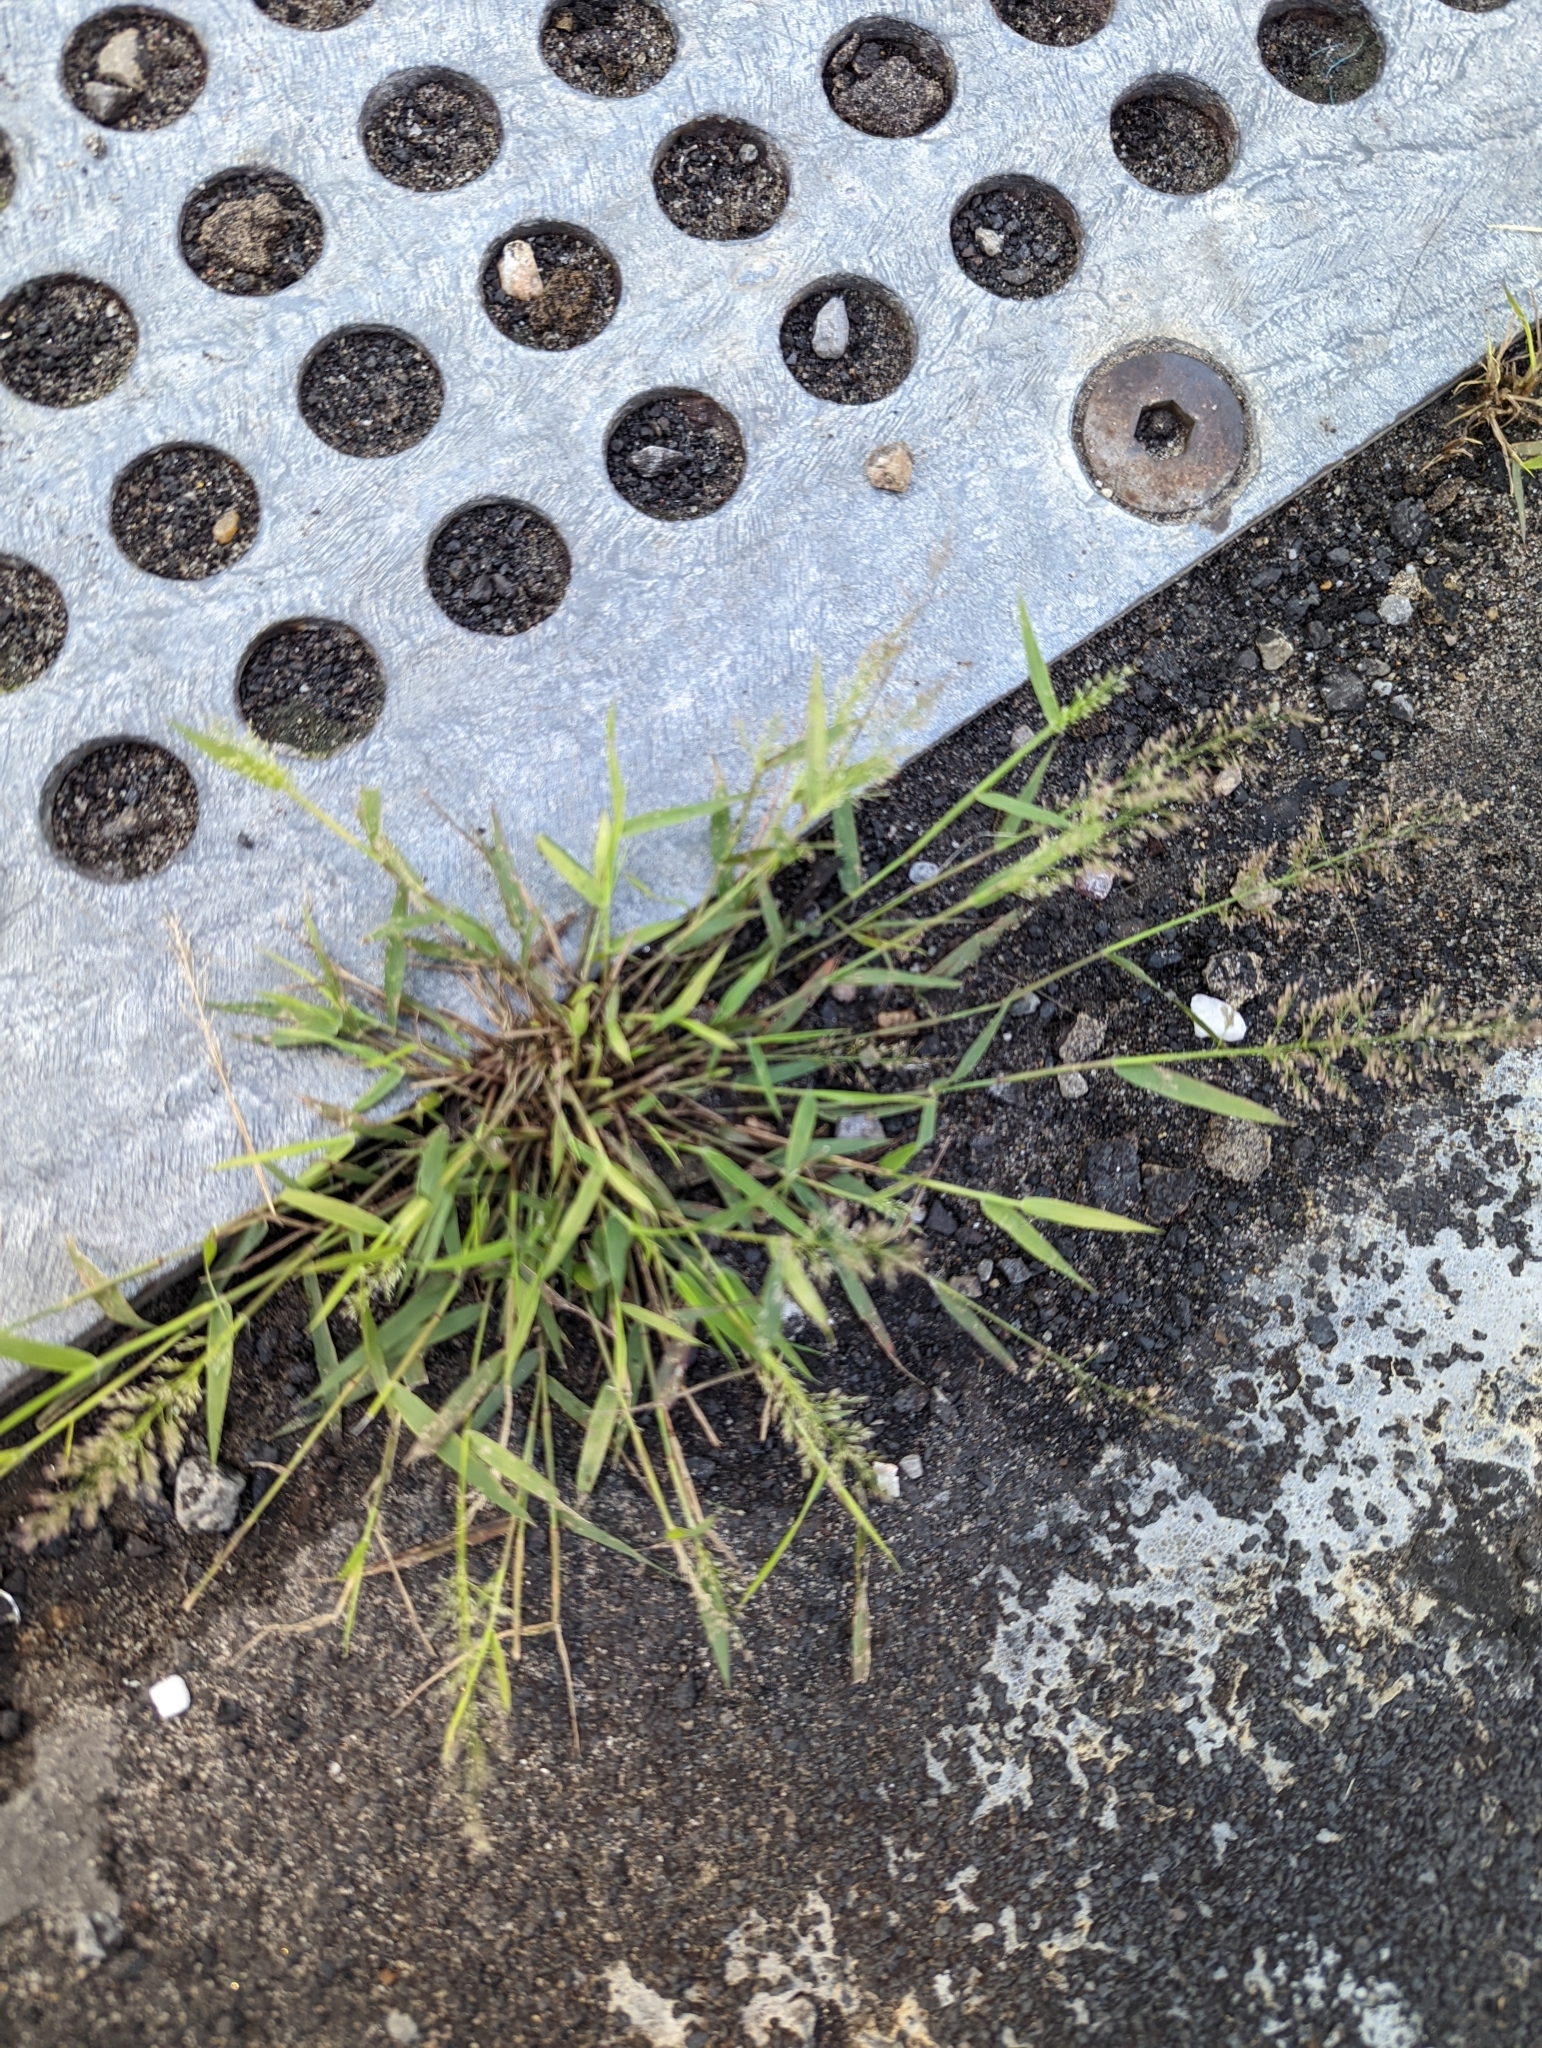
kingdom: Plantae
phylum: Tracheophyta
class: Liliopsida
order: Poales
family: Poaceae
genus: Eragrostis
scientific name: Eragrostis tenella
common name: Japanese lovegrass
